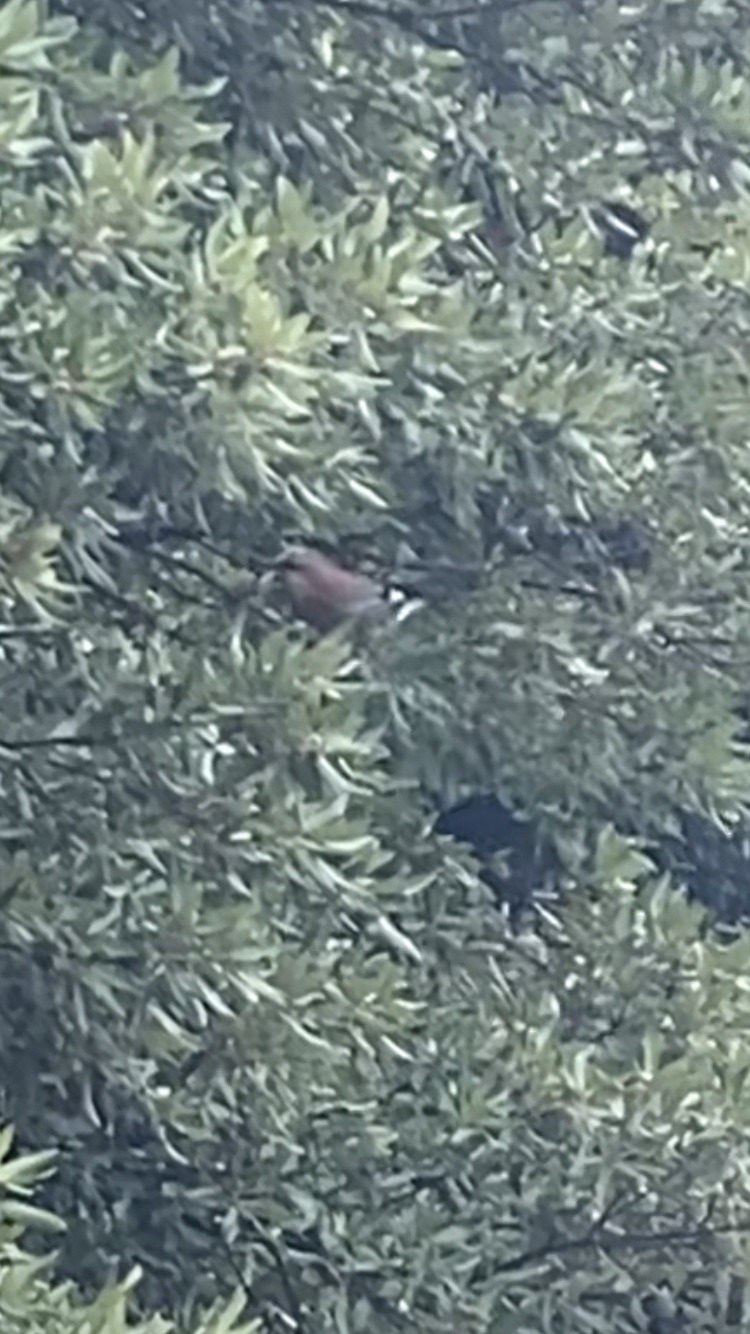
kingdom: Animalia
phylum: Chordata
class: Aves
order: Passeriformes
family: Corvidae
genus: Garrulus
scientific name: Garrulus glandarius
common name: Eurasian jay
